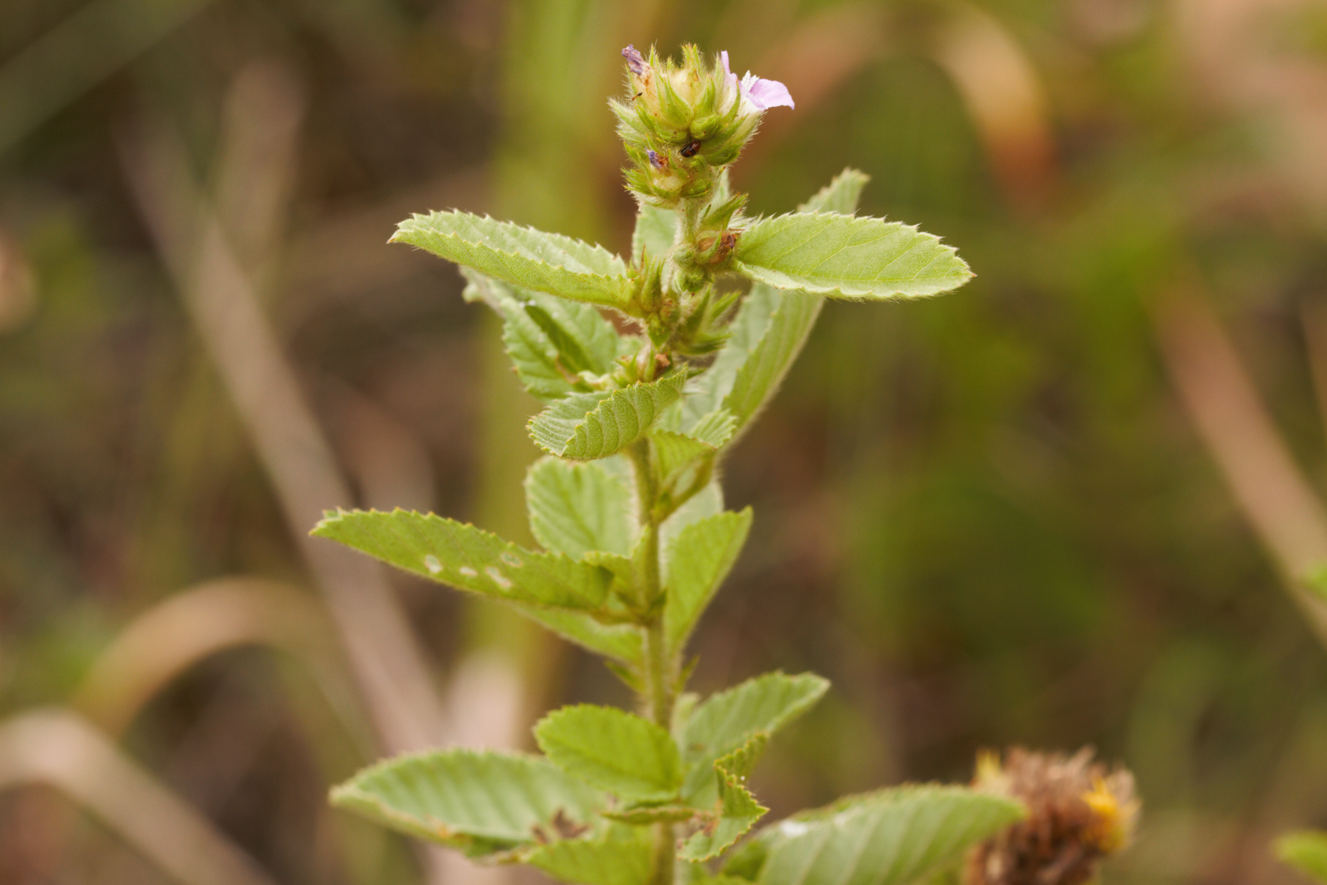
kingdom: Plantae
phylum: Tracheophyta
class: Magnoliopsida
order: Malvales
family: Malvaceae
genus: Melochia
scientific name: Melochia spicata
